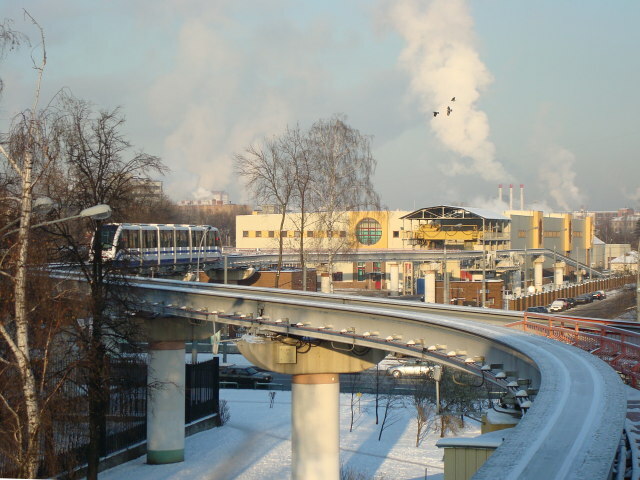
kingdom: Animalia
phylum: Chordata
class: Aves
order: Passeriformes
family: Corvidae
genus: Corvus
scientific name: Corvus cornix
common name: Hooded crow
